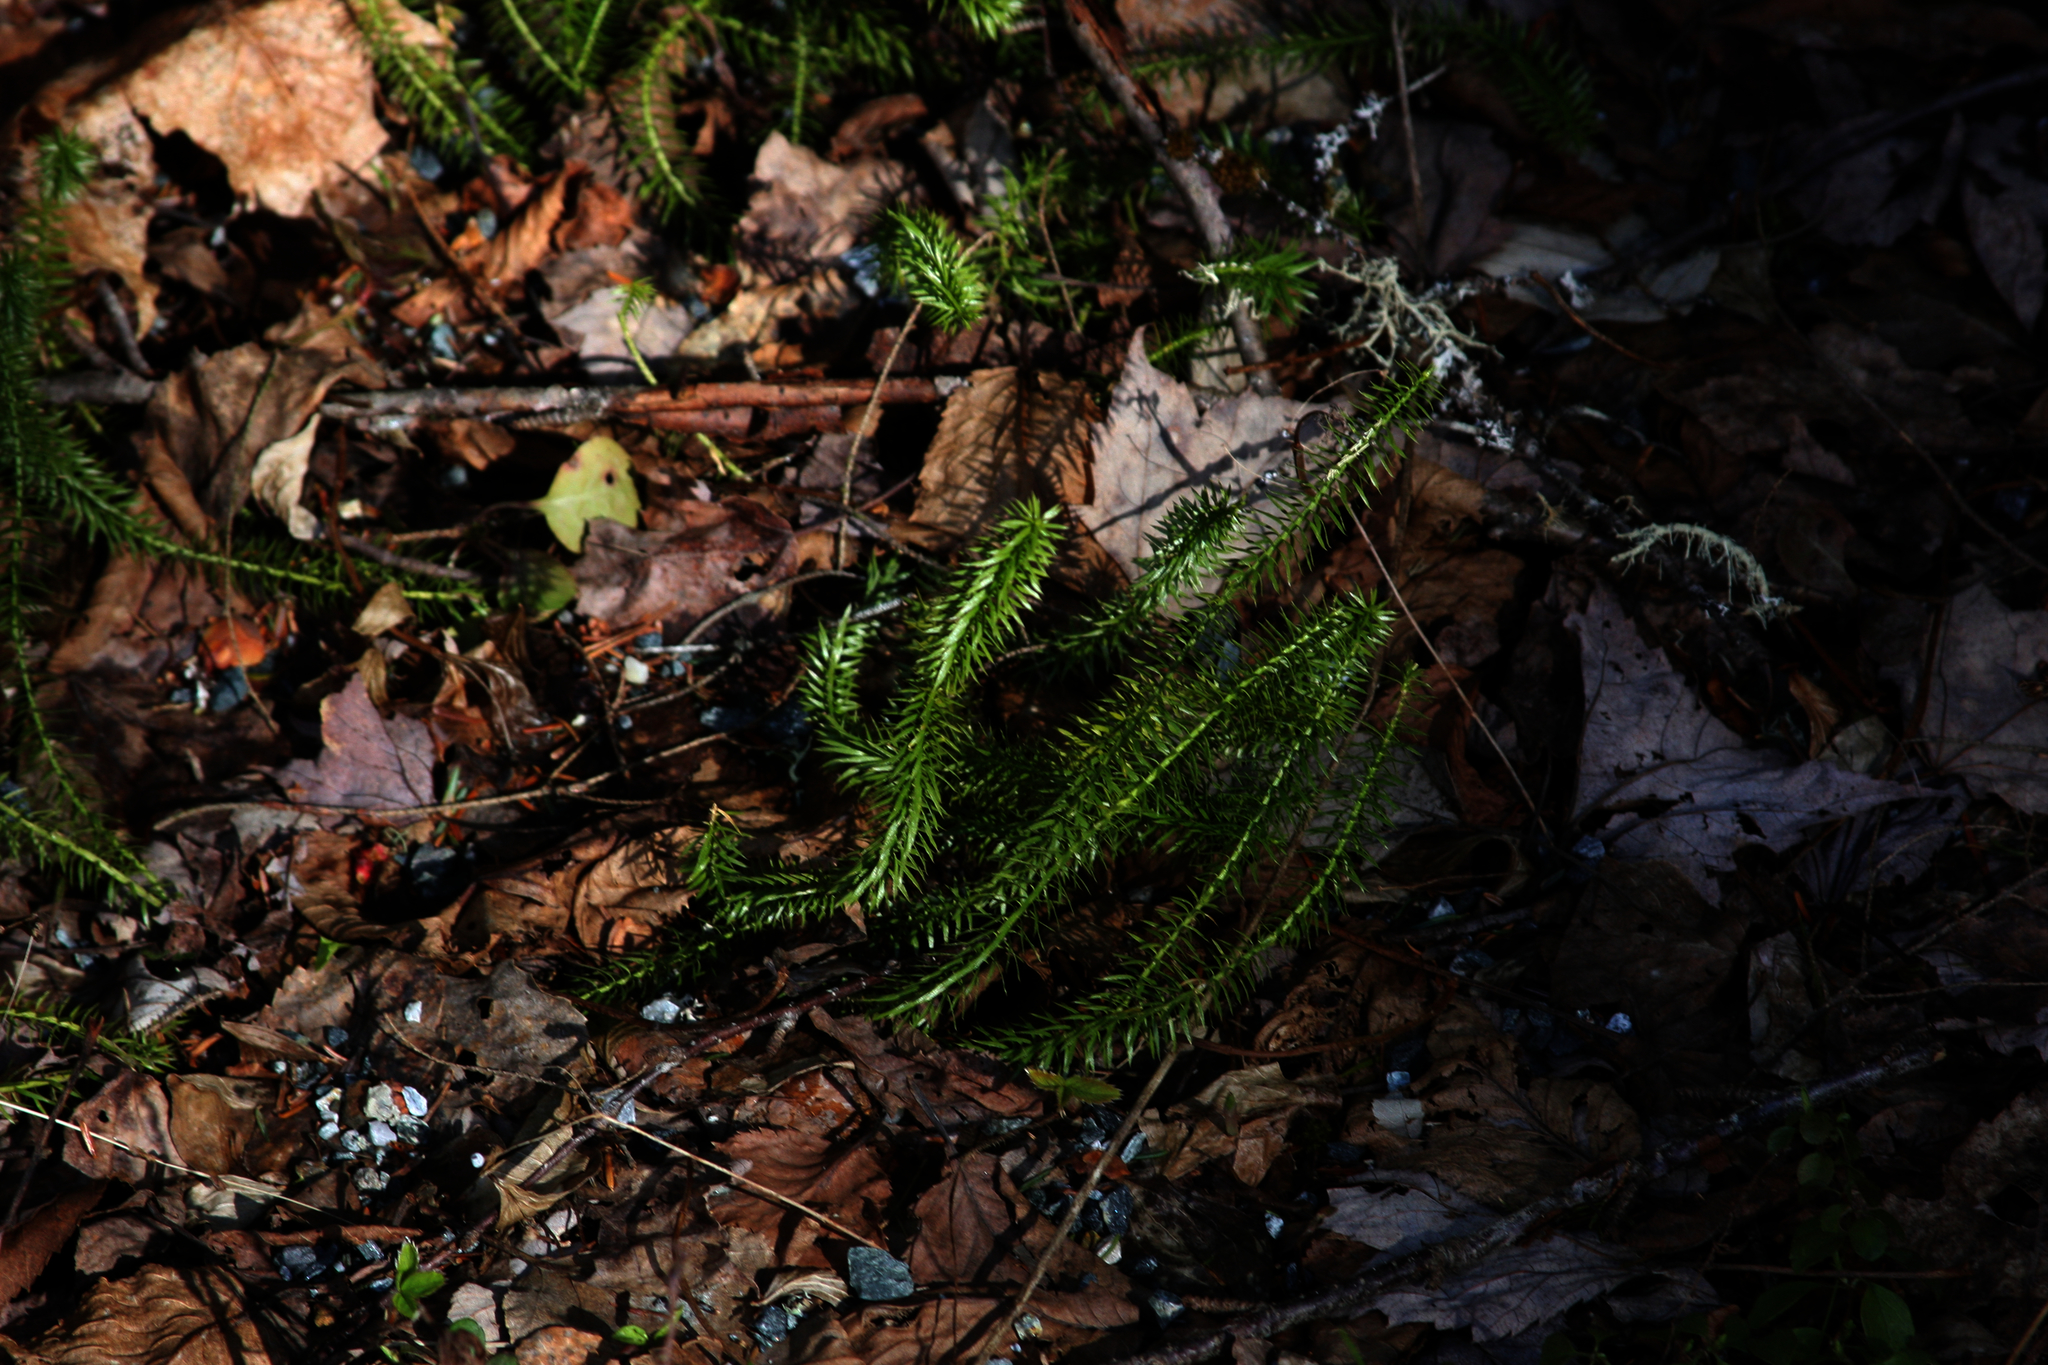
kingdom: Plantae
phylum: Tracheophyta
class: Lycopodiopsida
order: Lycopodiales
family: Lycopodiaceae
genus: Huperzia
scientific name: Huperzia lucidula
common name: Shining clubmoss
